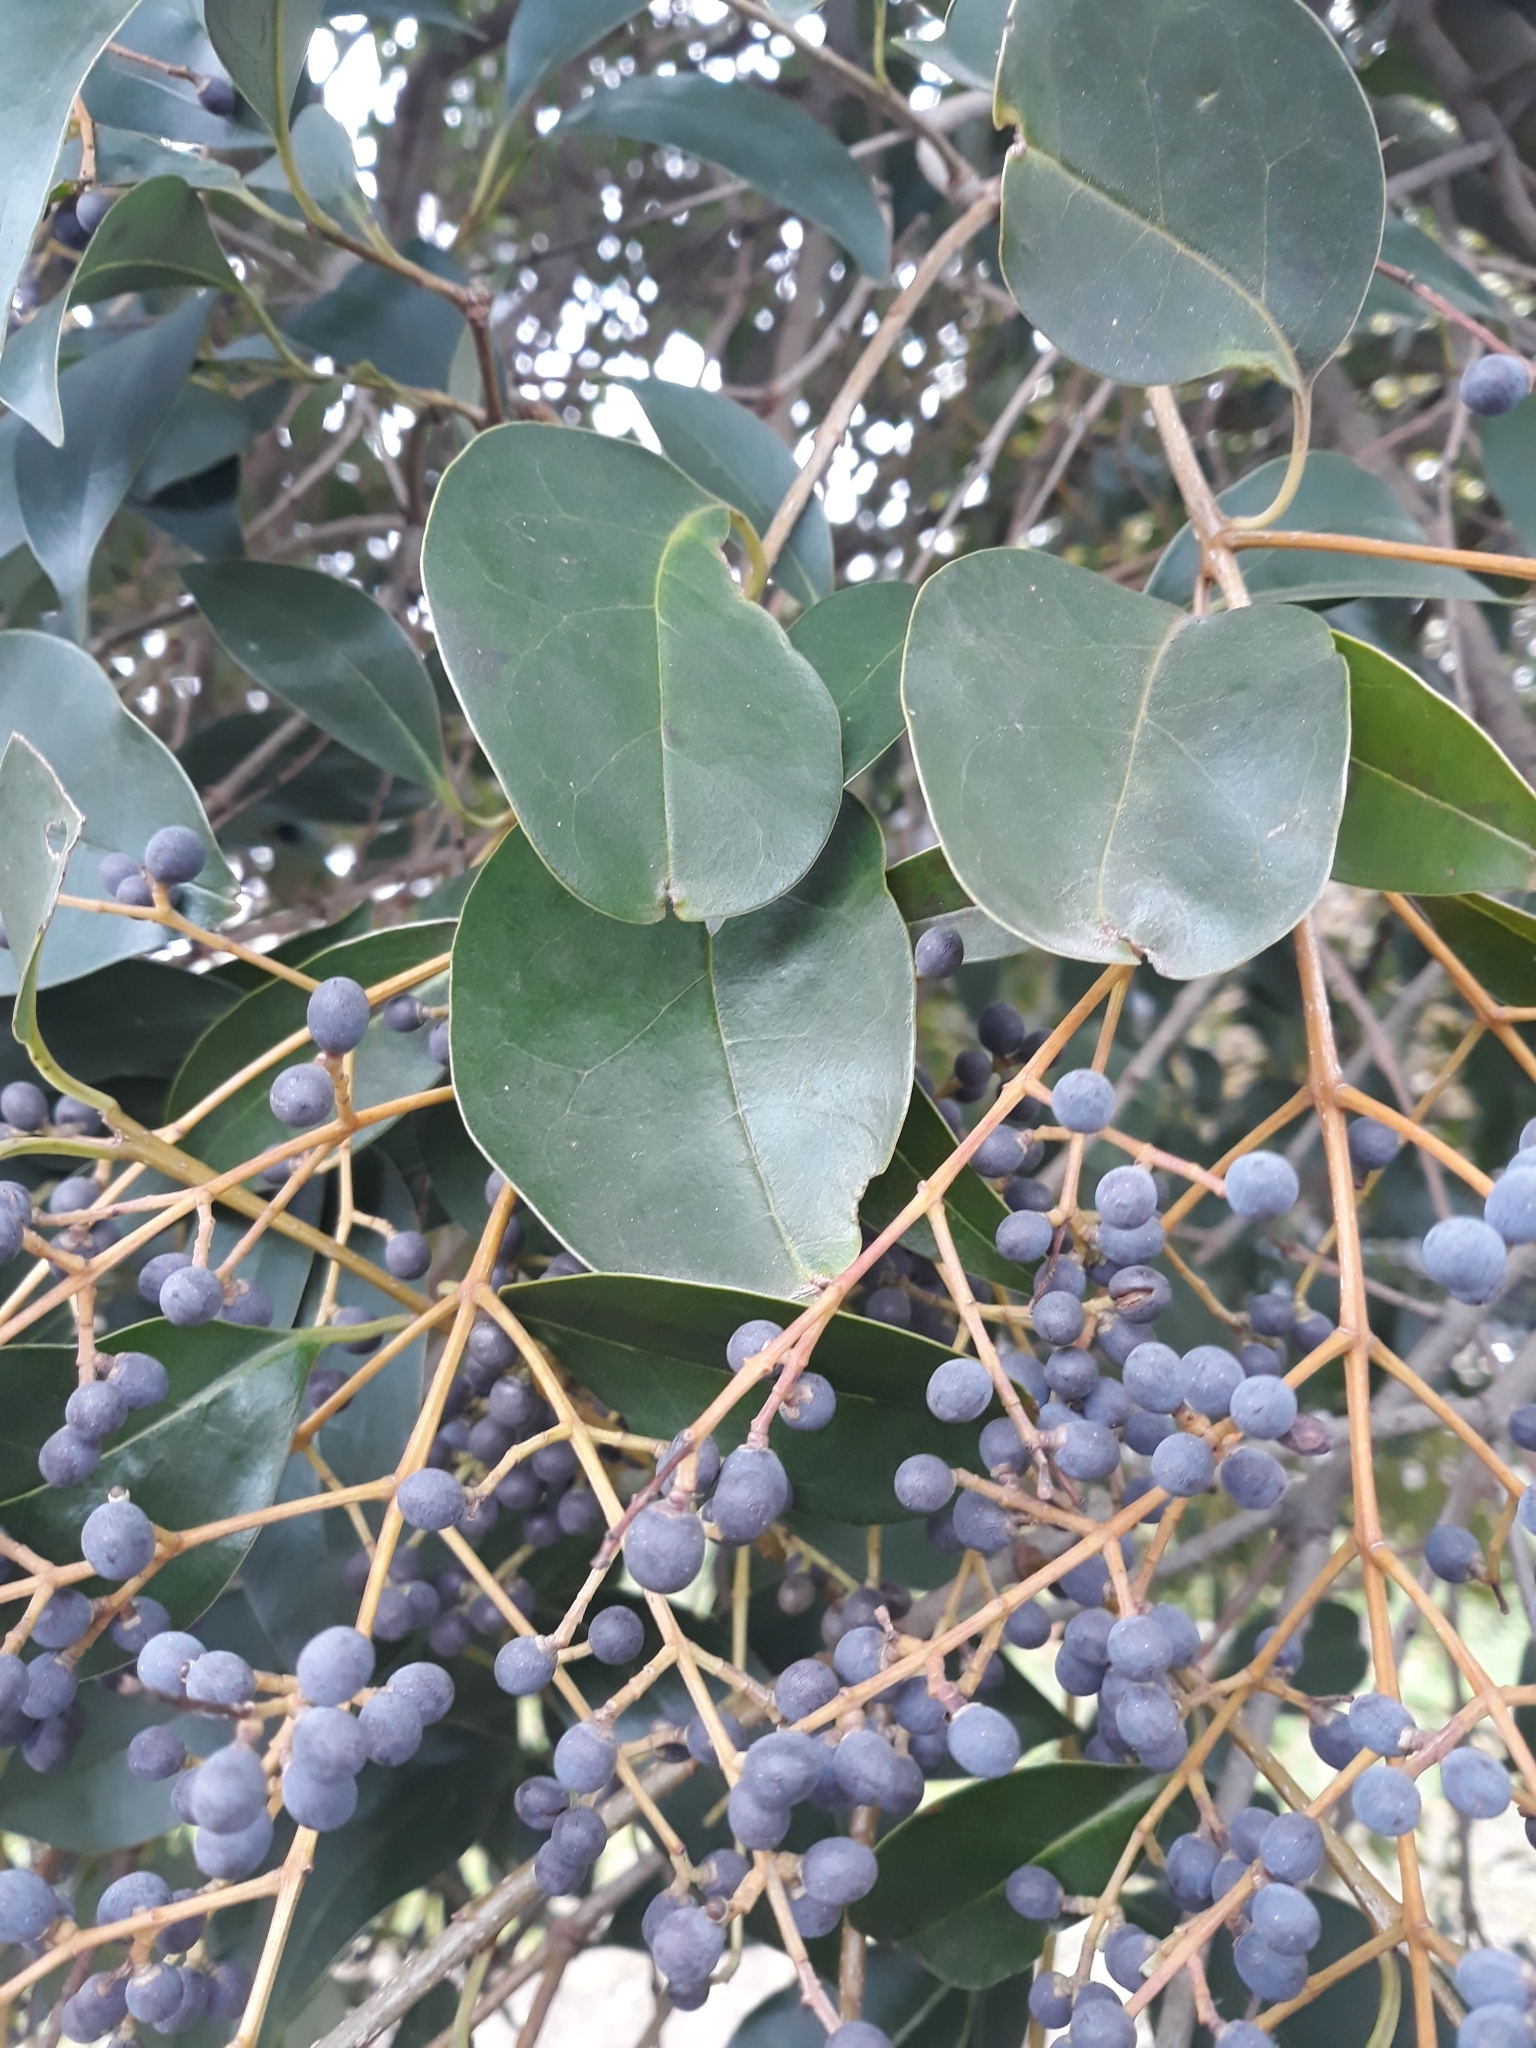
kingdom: Plantae
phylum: Tracheophyta
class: Magnoliopsida
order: Lamiales
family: Oleaceae
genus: Ligustrum
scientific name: Ligustrum lucidum
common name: Glossy privet
